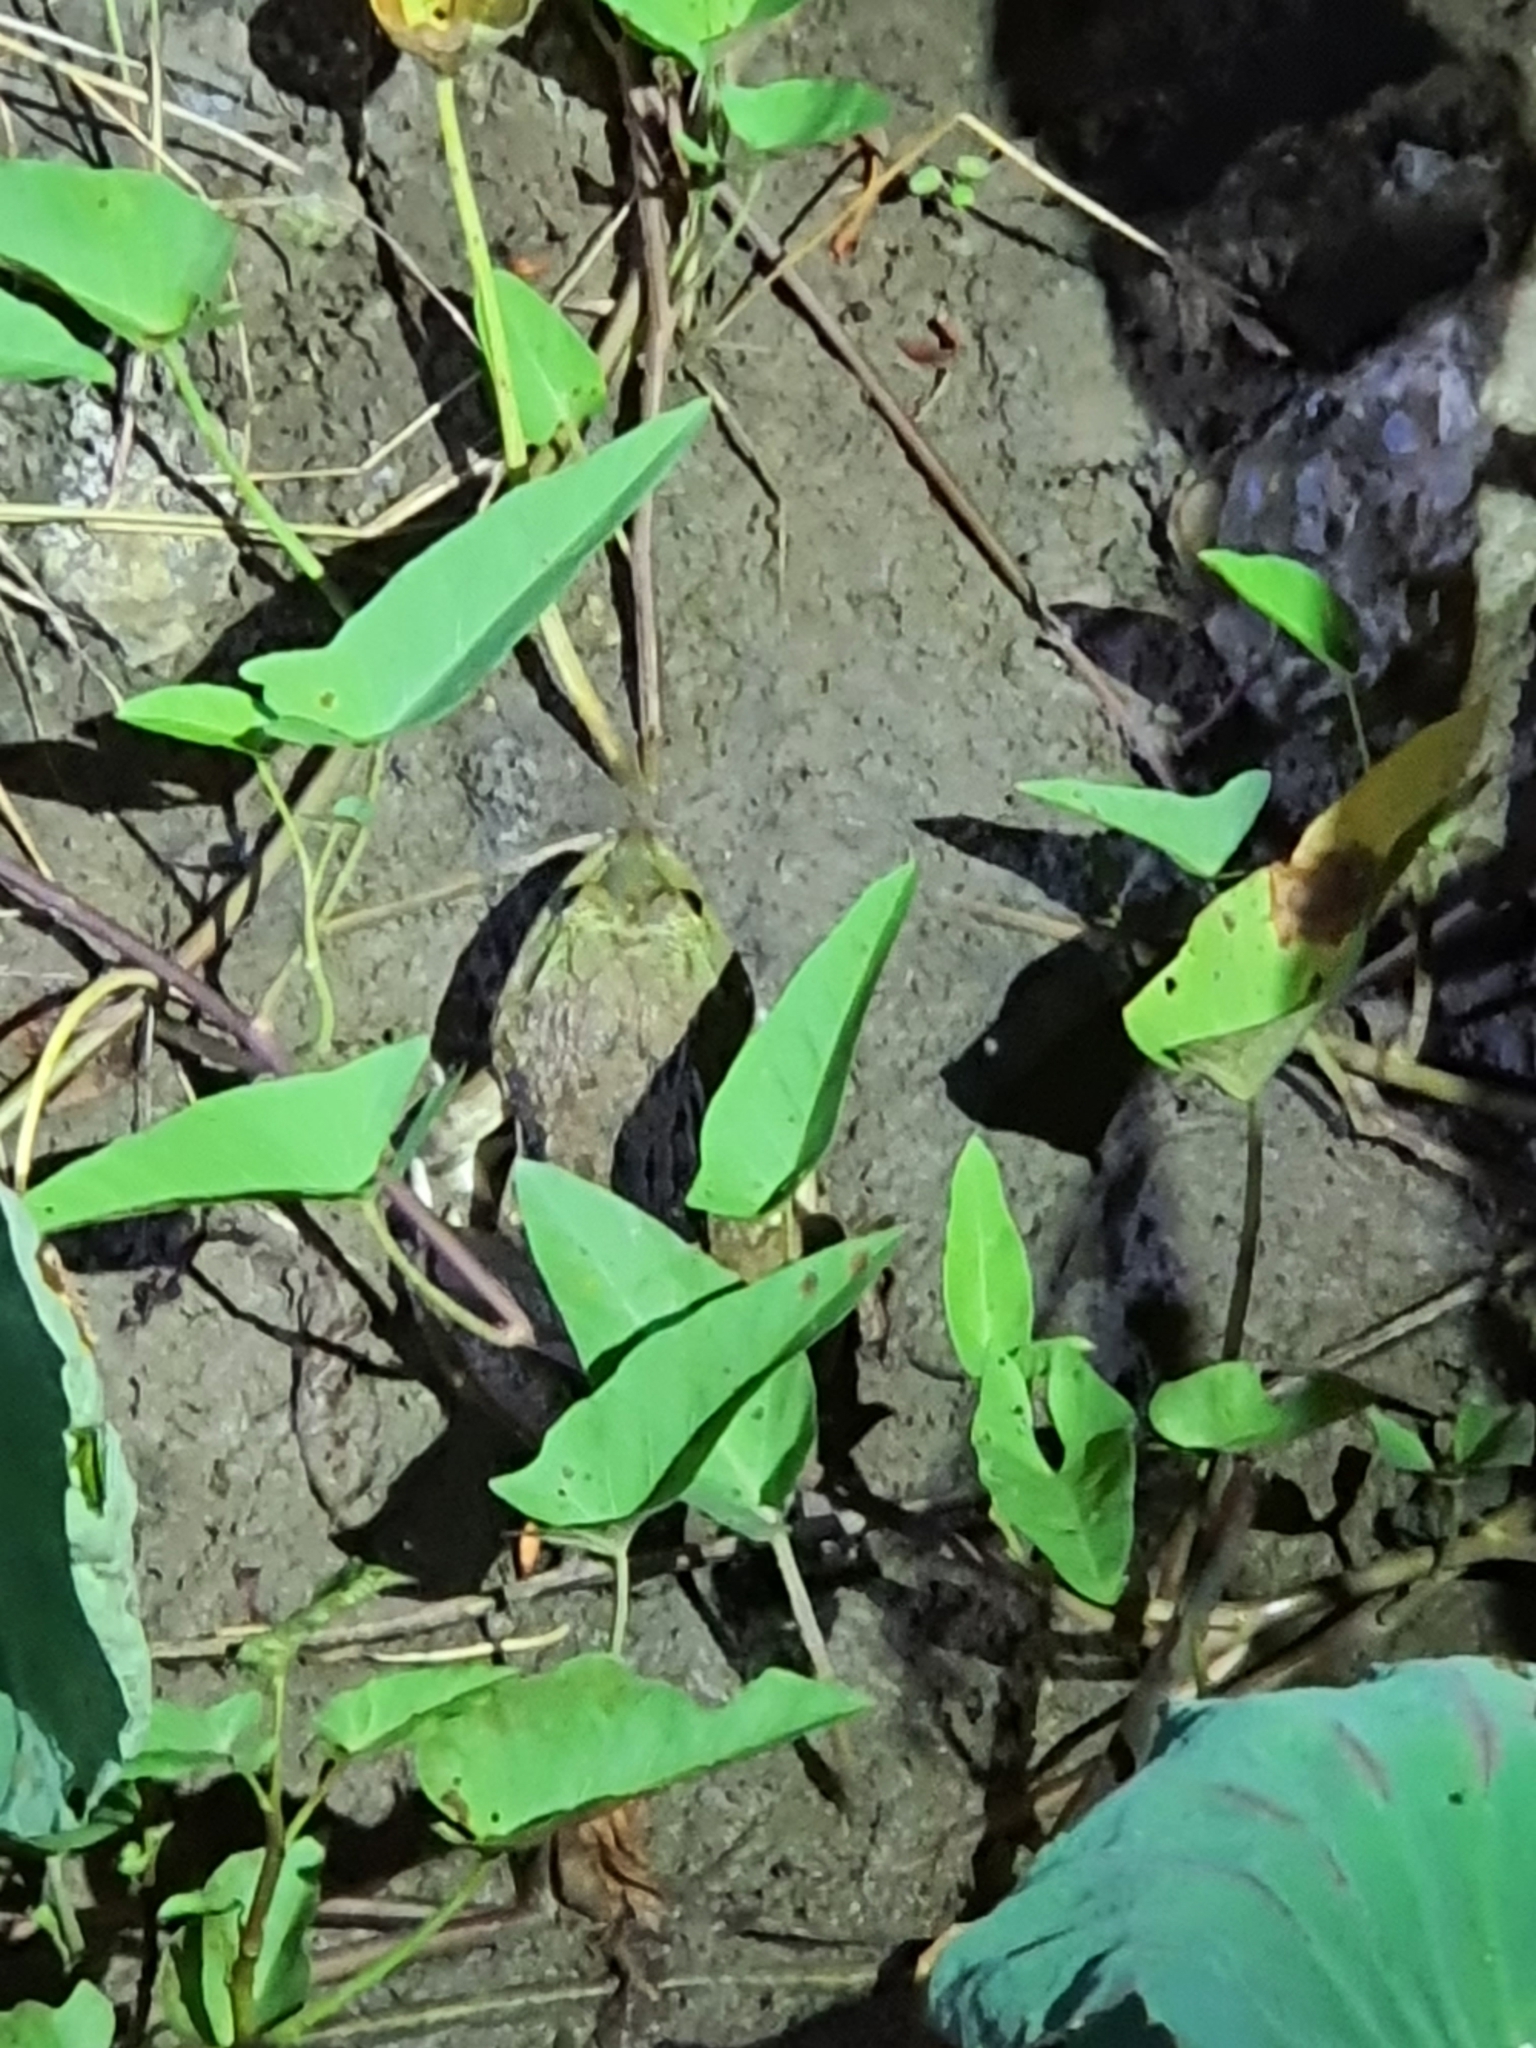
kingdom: Animalia
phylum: Chordata
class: Amphibia
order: Anura
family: Dicroglossidae
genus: Hoplobatrachus
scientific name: Hoplobatrachus rugulosus
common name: Chinese edible frog
